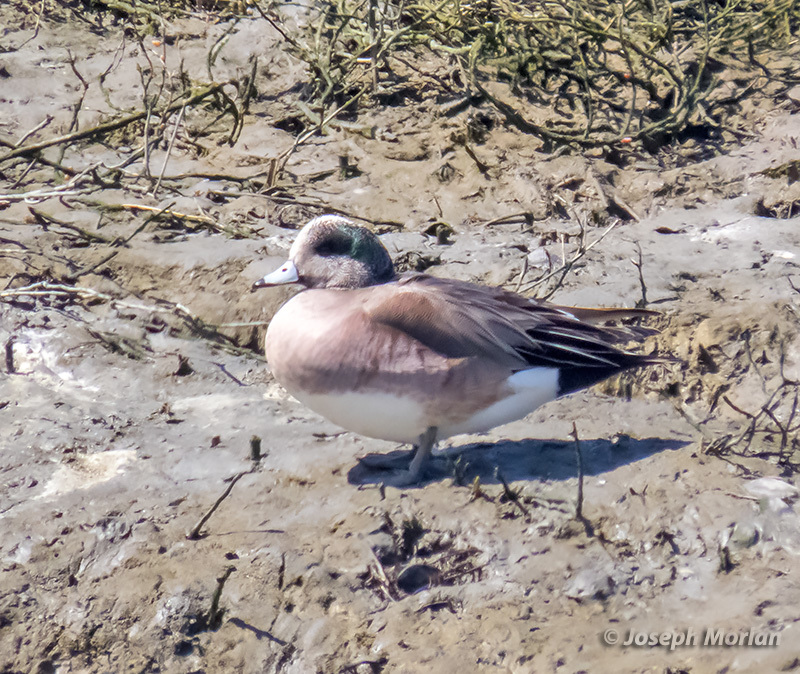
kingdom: Animalia
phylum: Chordata
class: Aves
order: Anseriformes
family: Anatidae
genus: Mareca
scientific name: Mareca americana
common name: American wigeon
